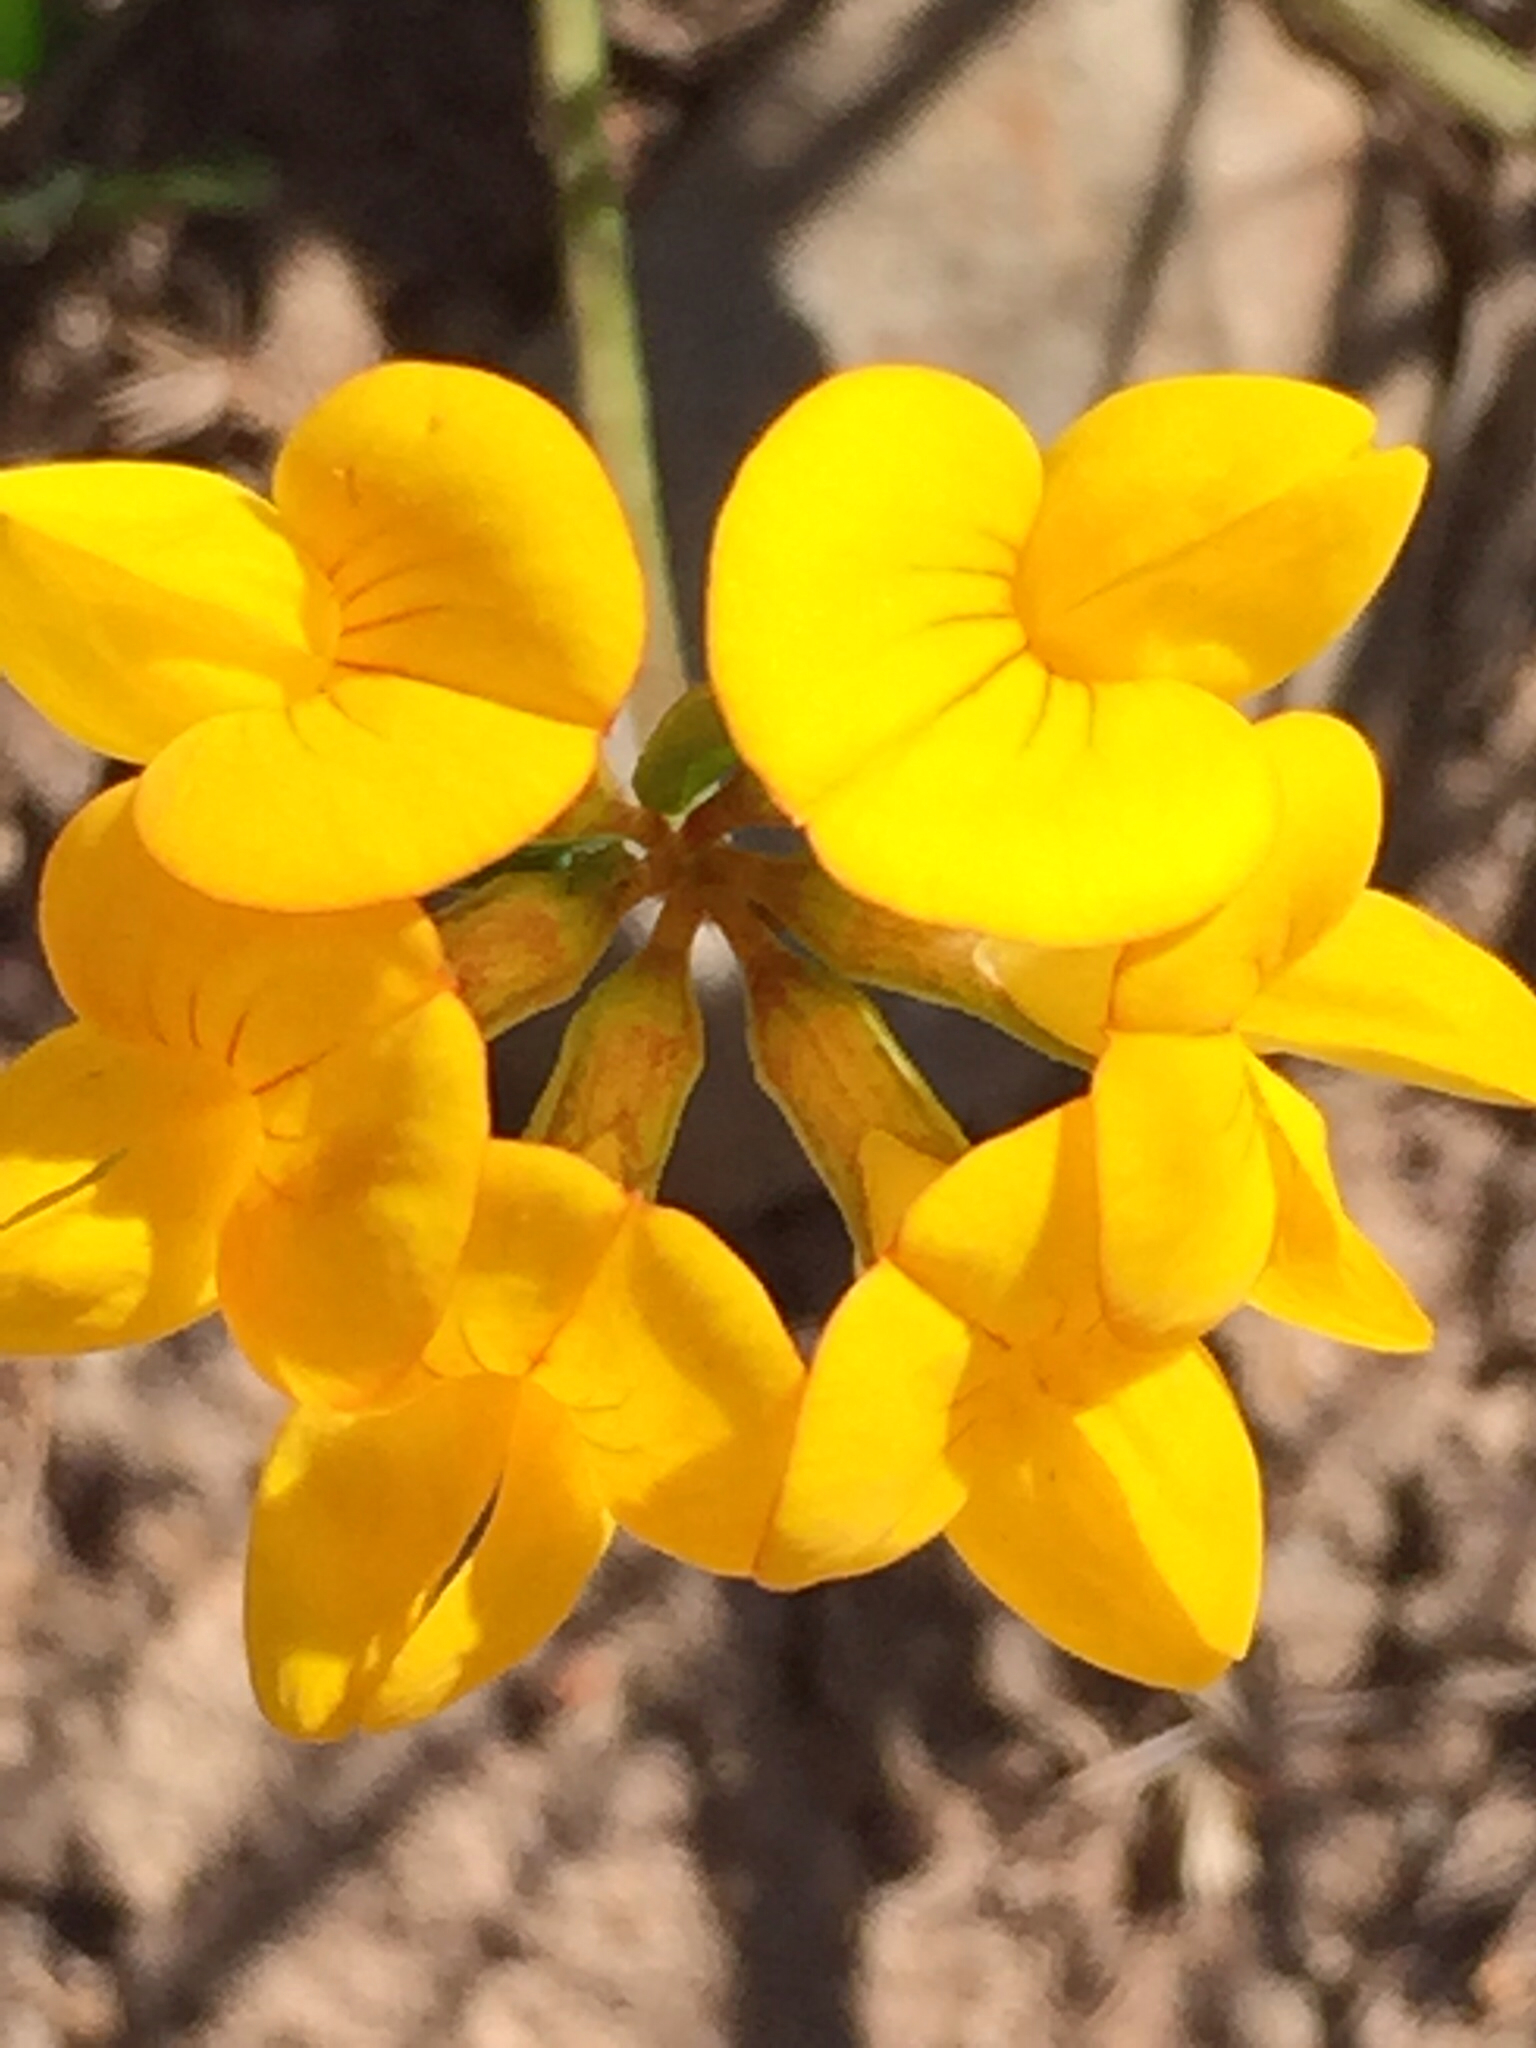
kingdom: Plantae
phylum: Tracheophyta
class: Magnoliopsida
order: Fabales
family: Fabaceae
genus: Lotus
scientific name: Lotus corniculatus
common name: Common bird's-foot-trefoil
